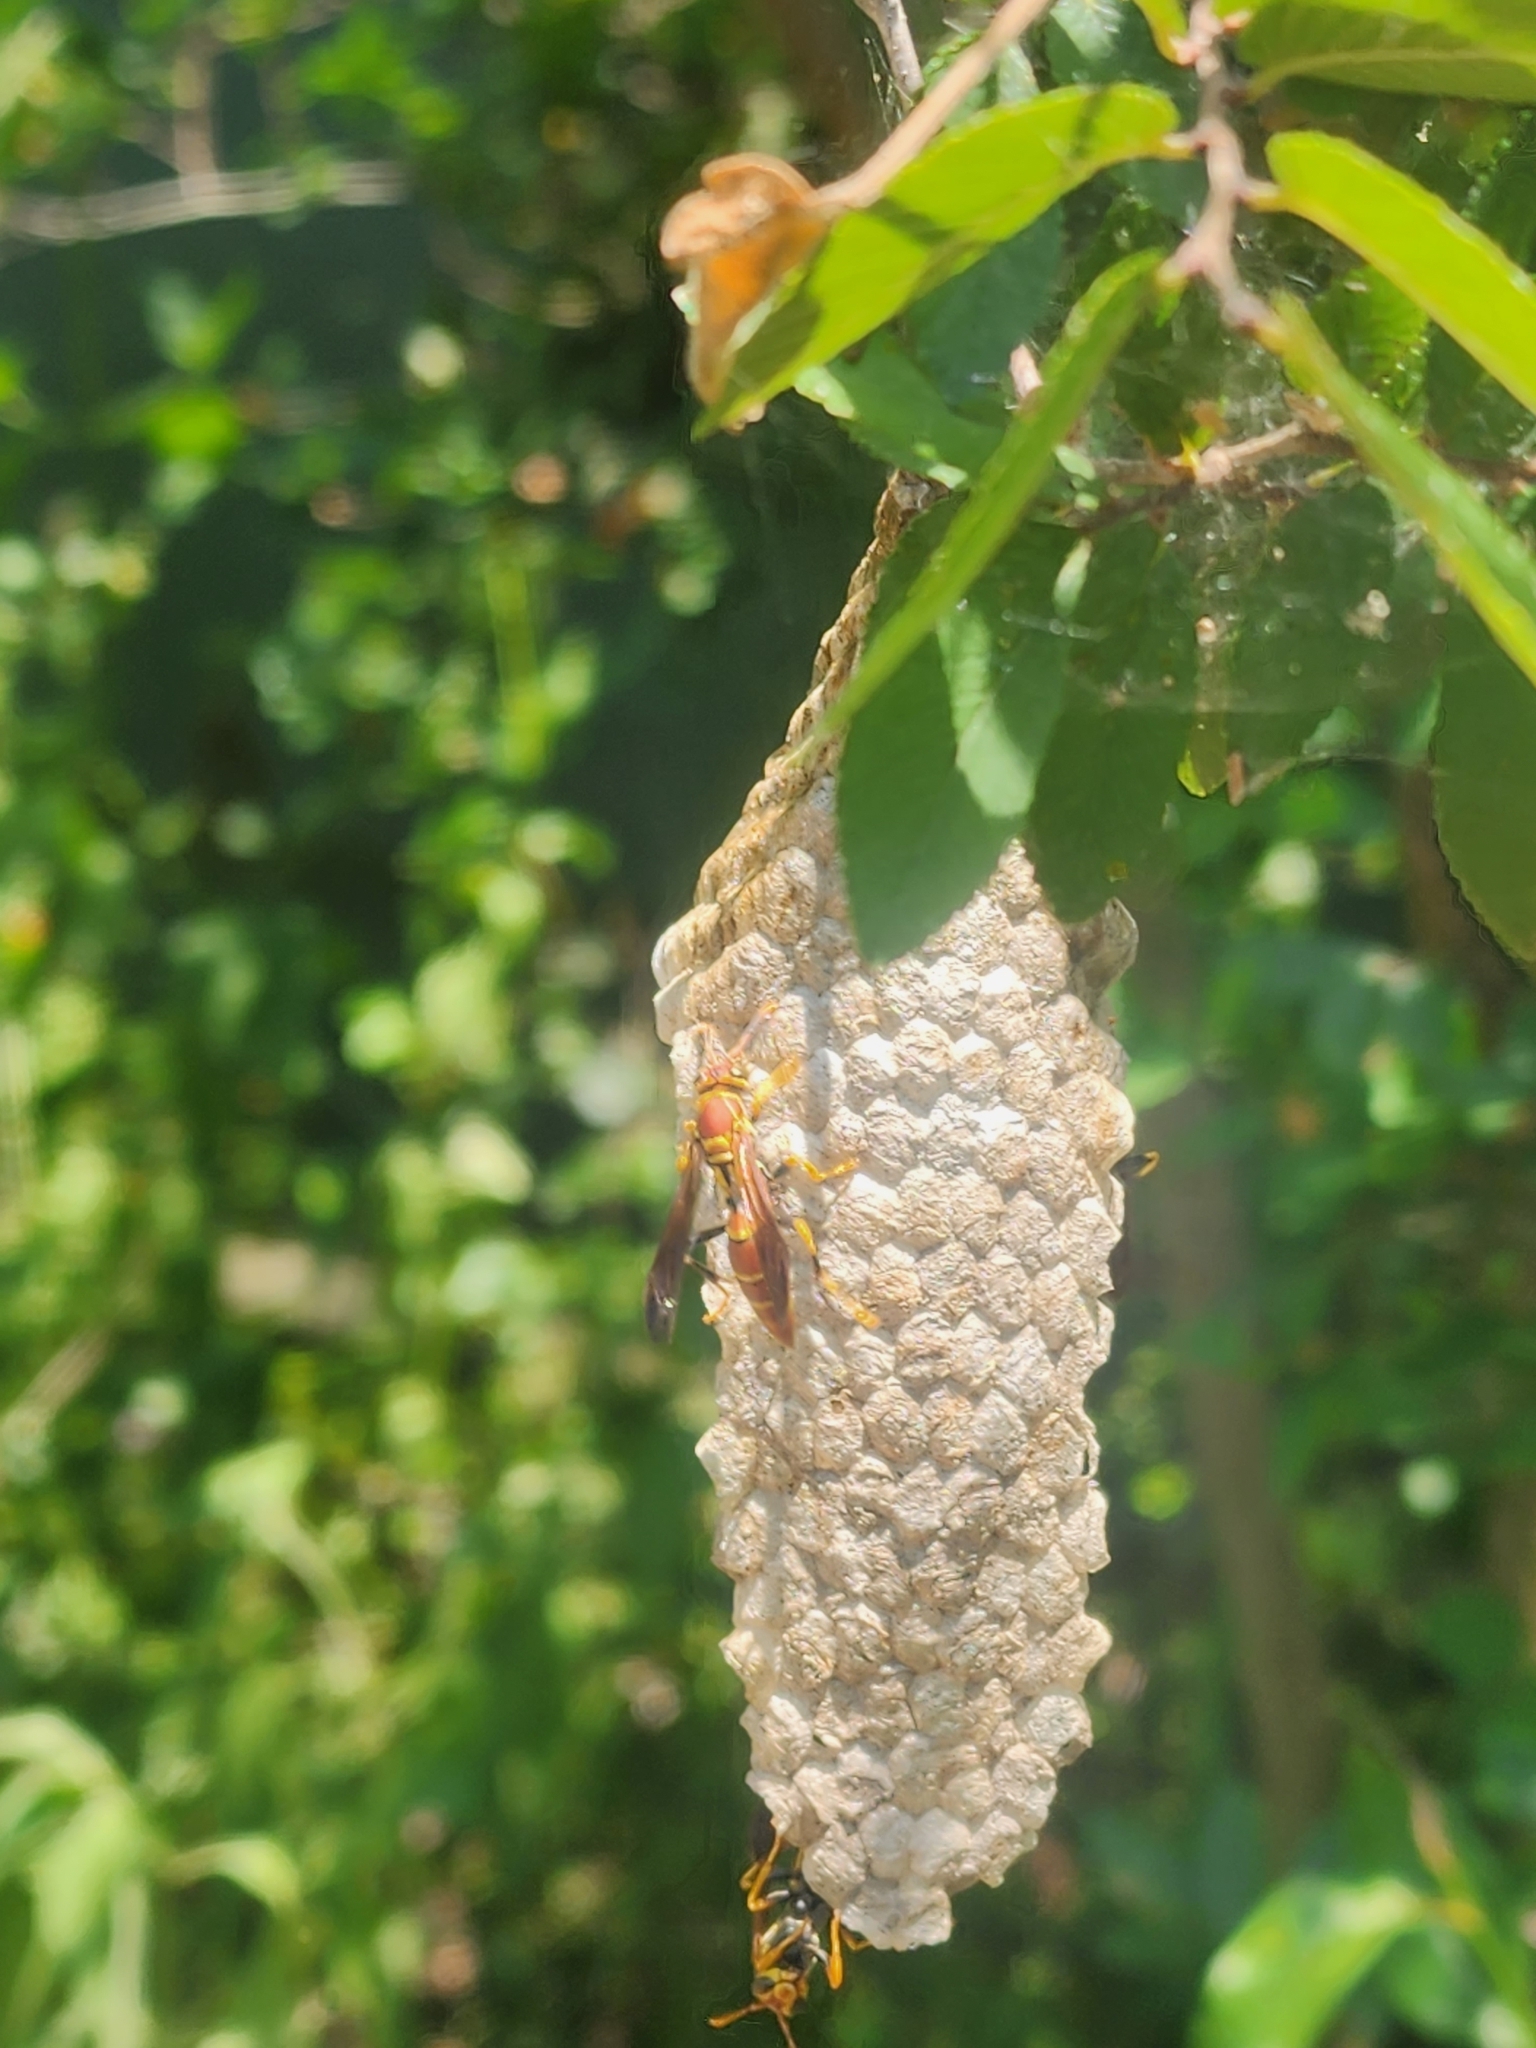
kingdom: Animalia
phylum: Arthropoda
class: Insecta
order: Hymenoptera
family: Eumenidae
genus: Polistes
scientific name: Polistes instabilis
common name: Unstable paper wasp
